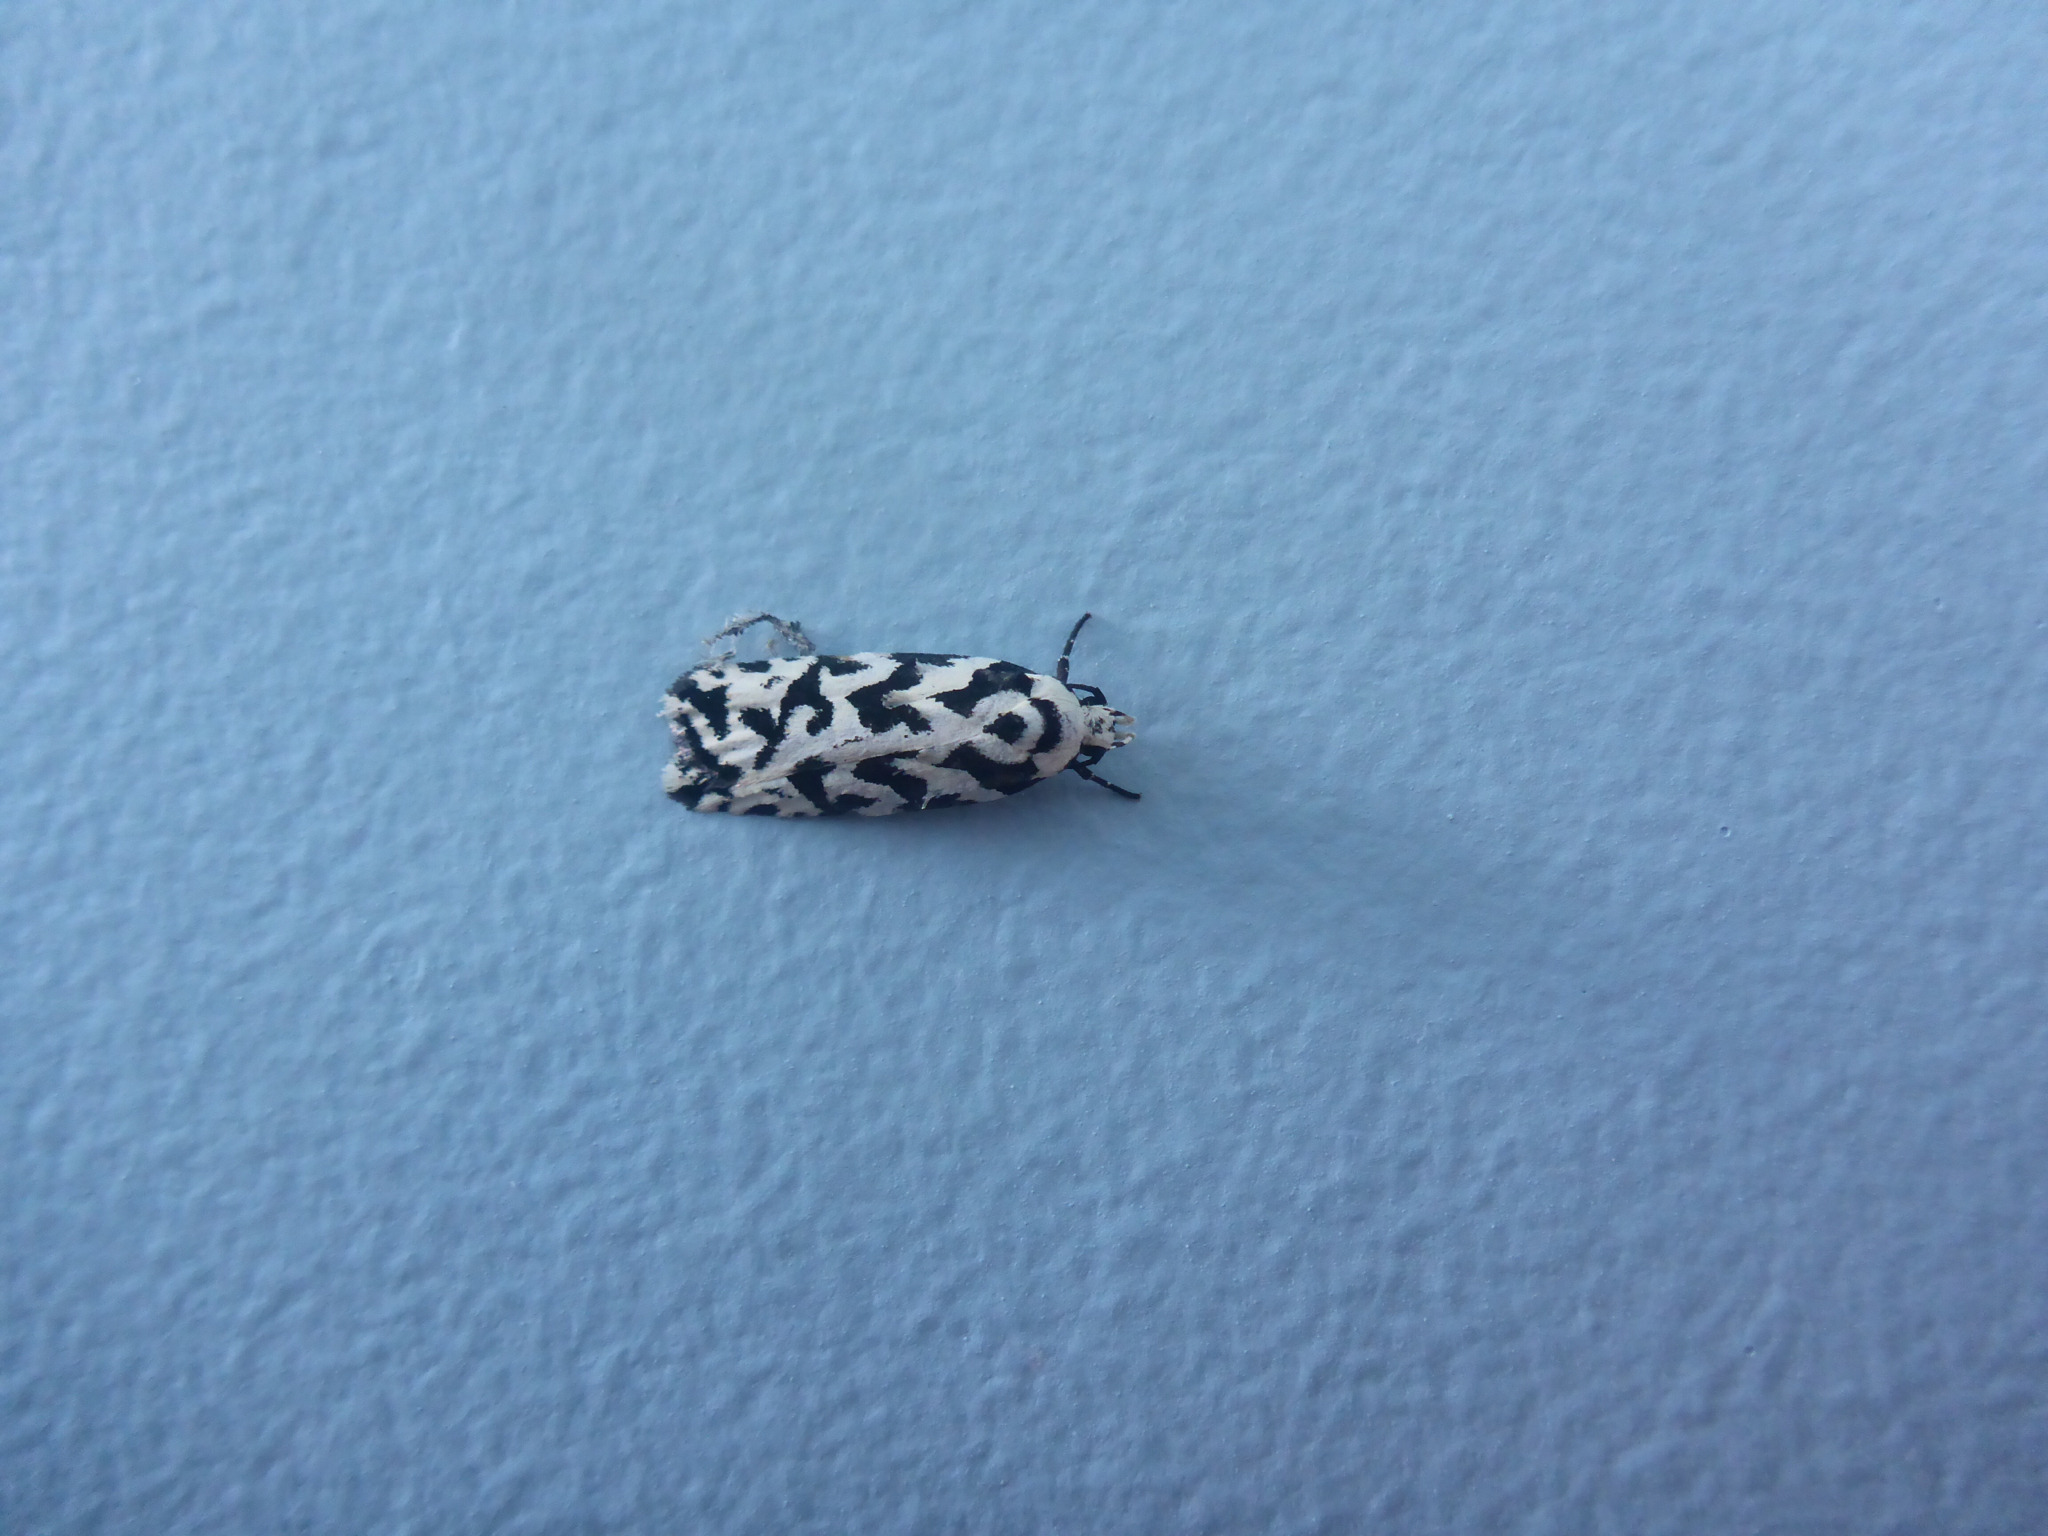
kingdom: Animalia
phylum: Arthropoda
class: Insecta
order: Lepidoptera
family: Oecophoridae
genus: Izatha
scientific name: Izatha
